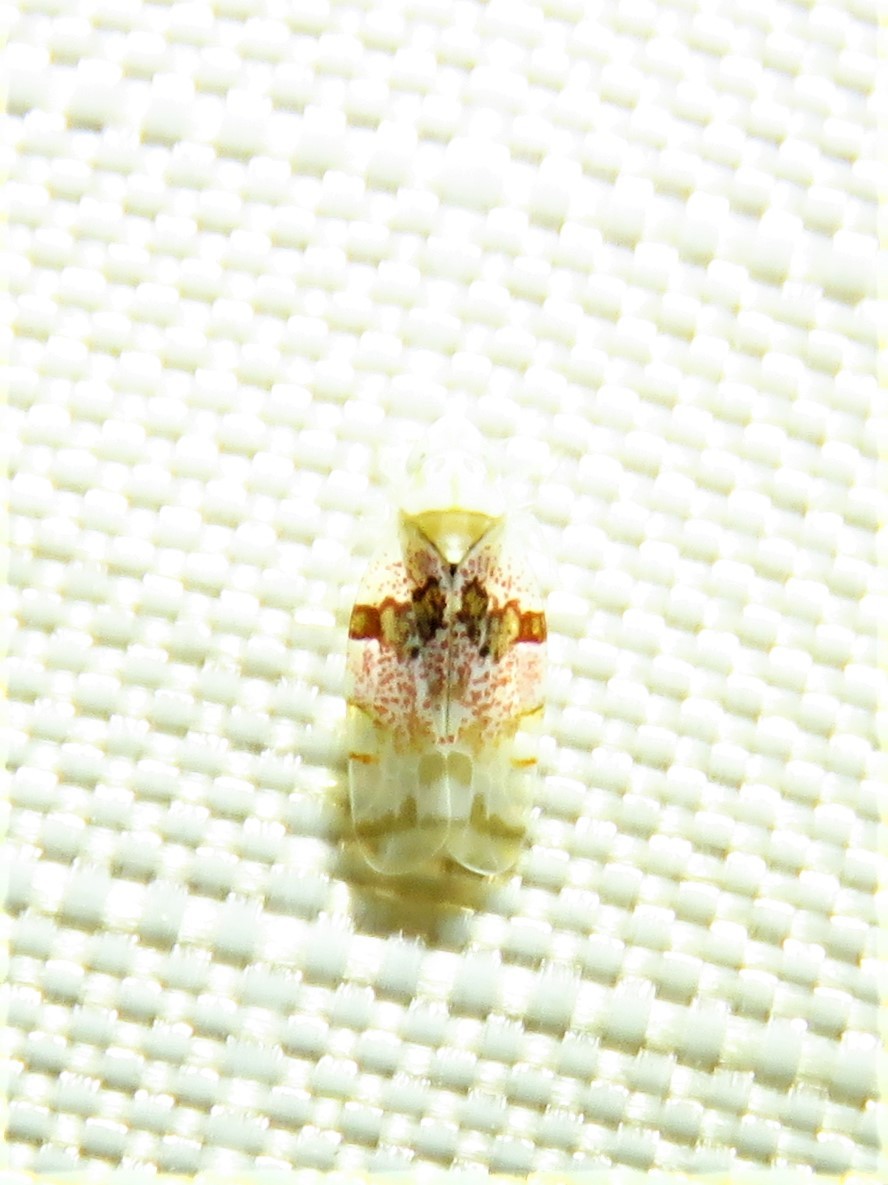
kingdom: Animalia
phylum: Arthropoda
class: Insecta
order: Hemiptera
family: Cicadellidae
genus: Hymetta
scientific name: Hymetta anthisma
